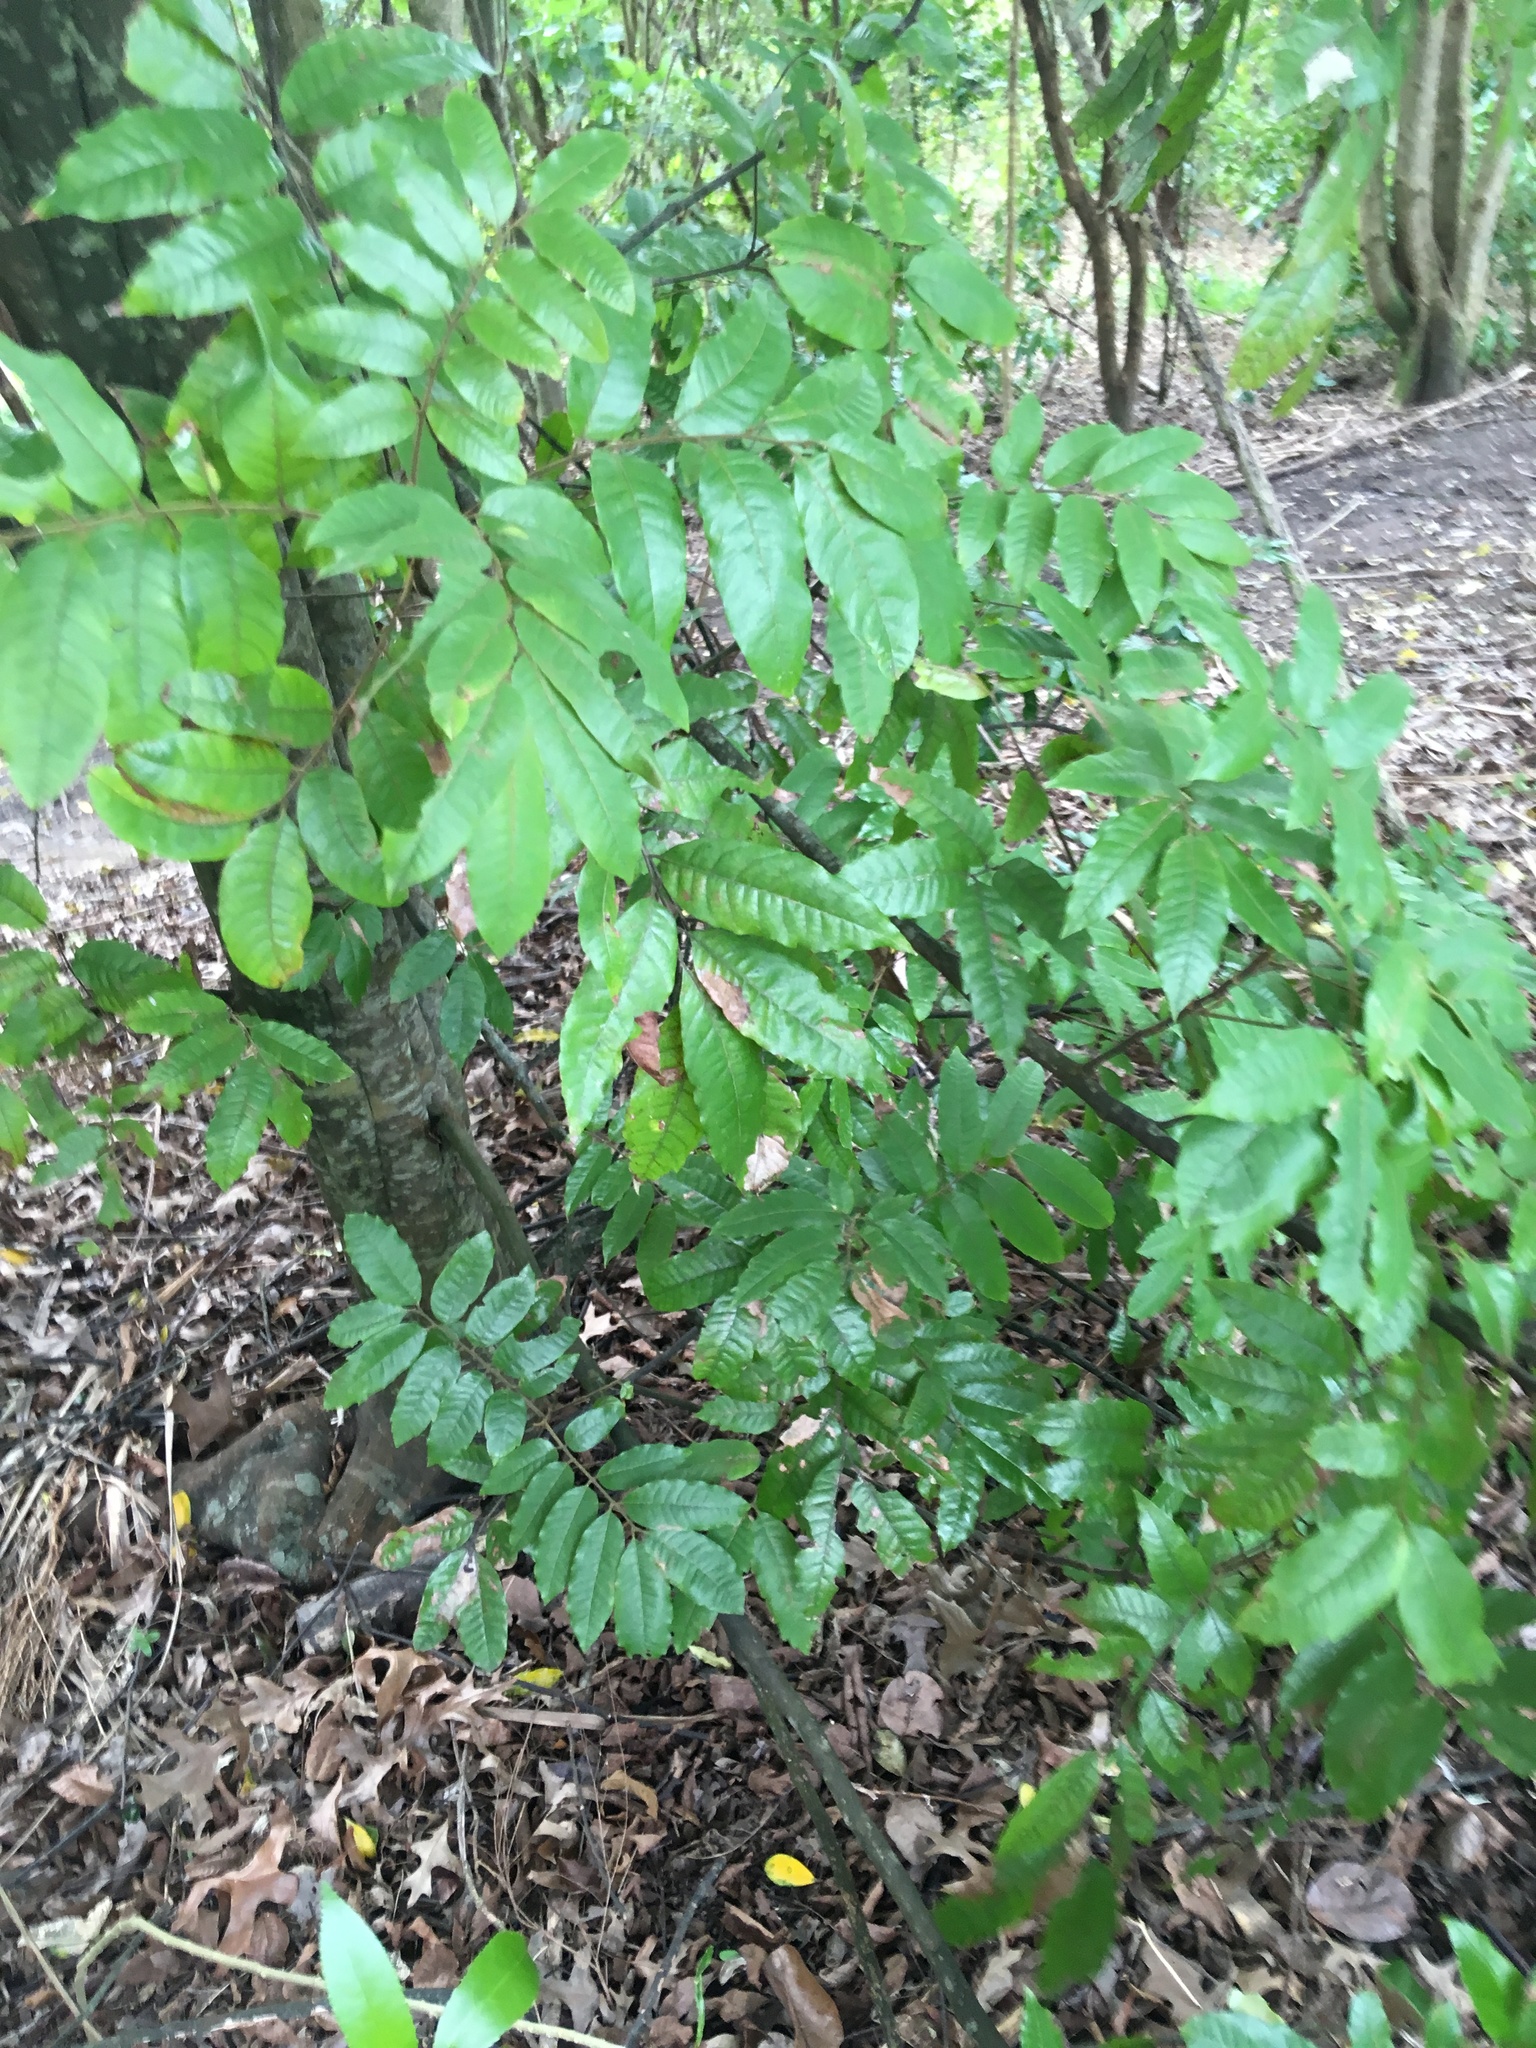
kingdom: Plantae
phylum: Tracheophyta
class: Magnoliopsida
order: Sapindales
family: Sapindaceae
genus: Alectryon
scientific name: Alectryon excelsus
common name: Three kings titoki
